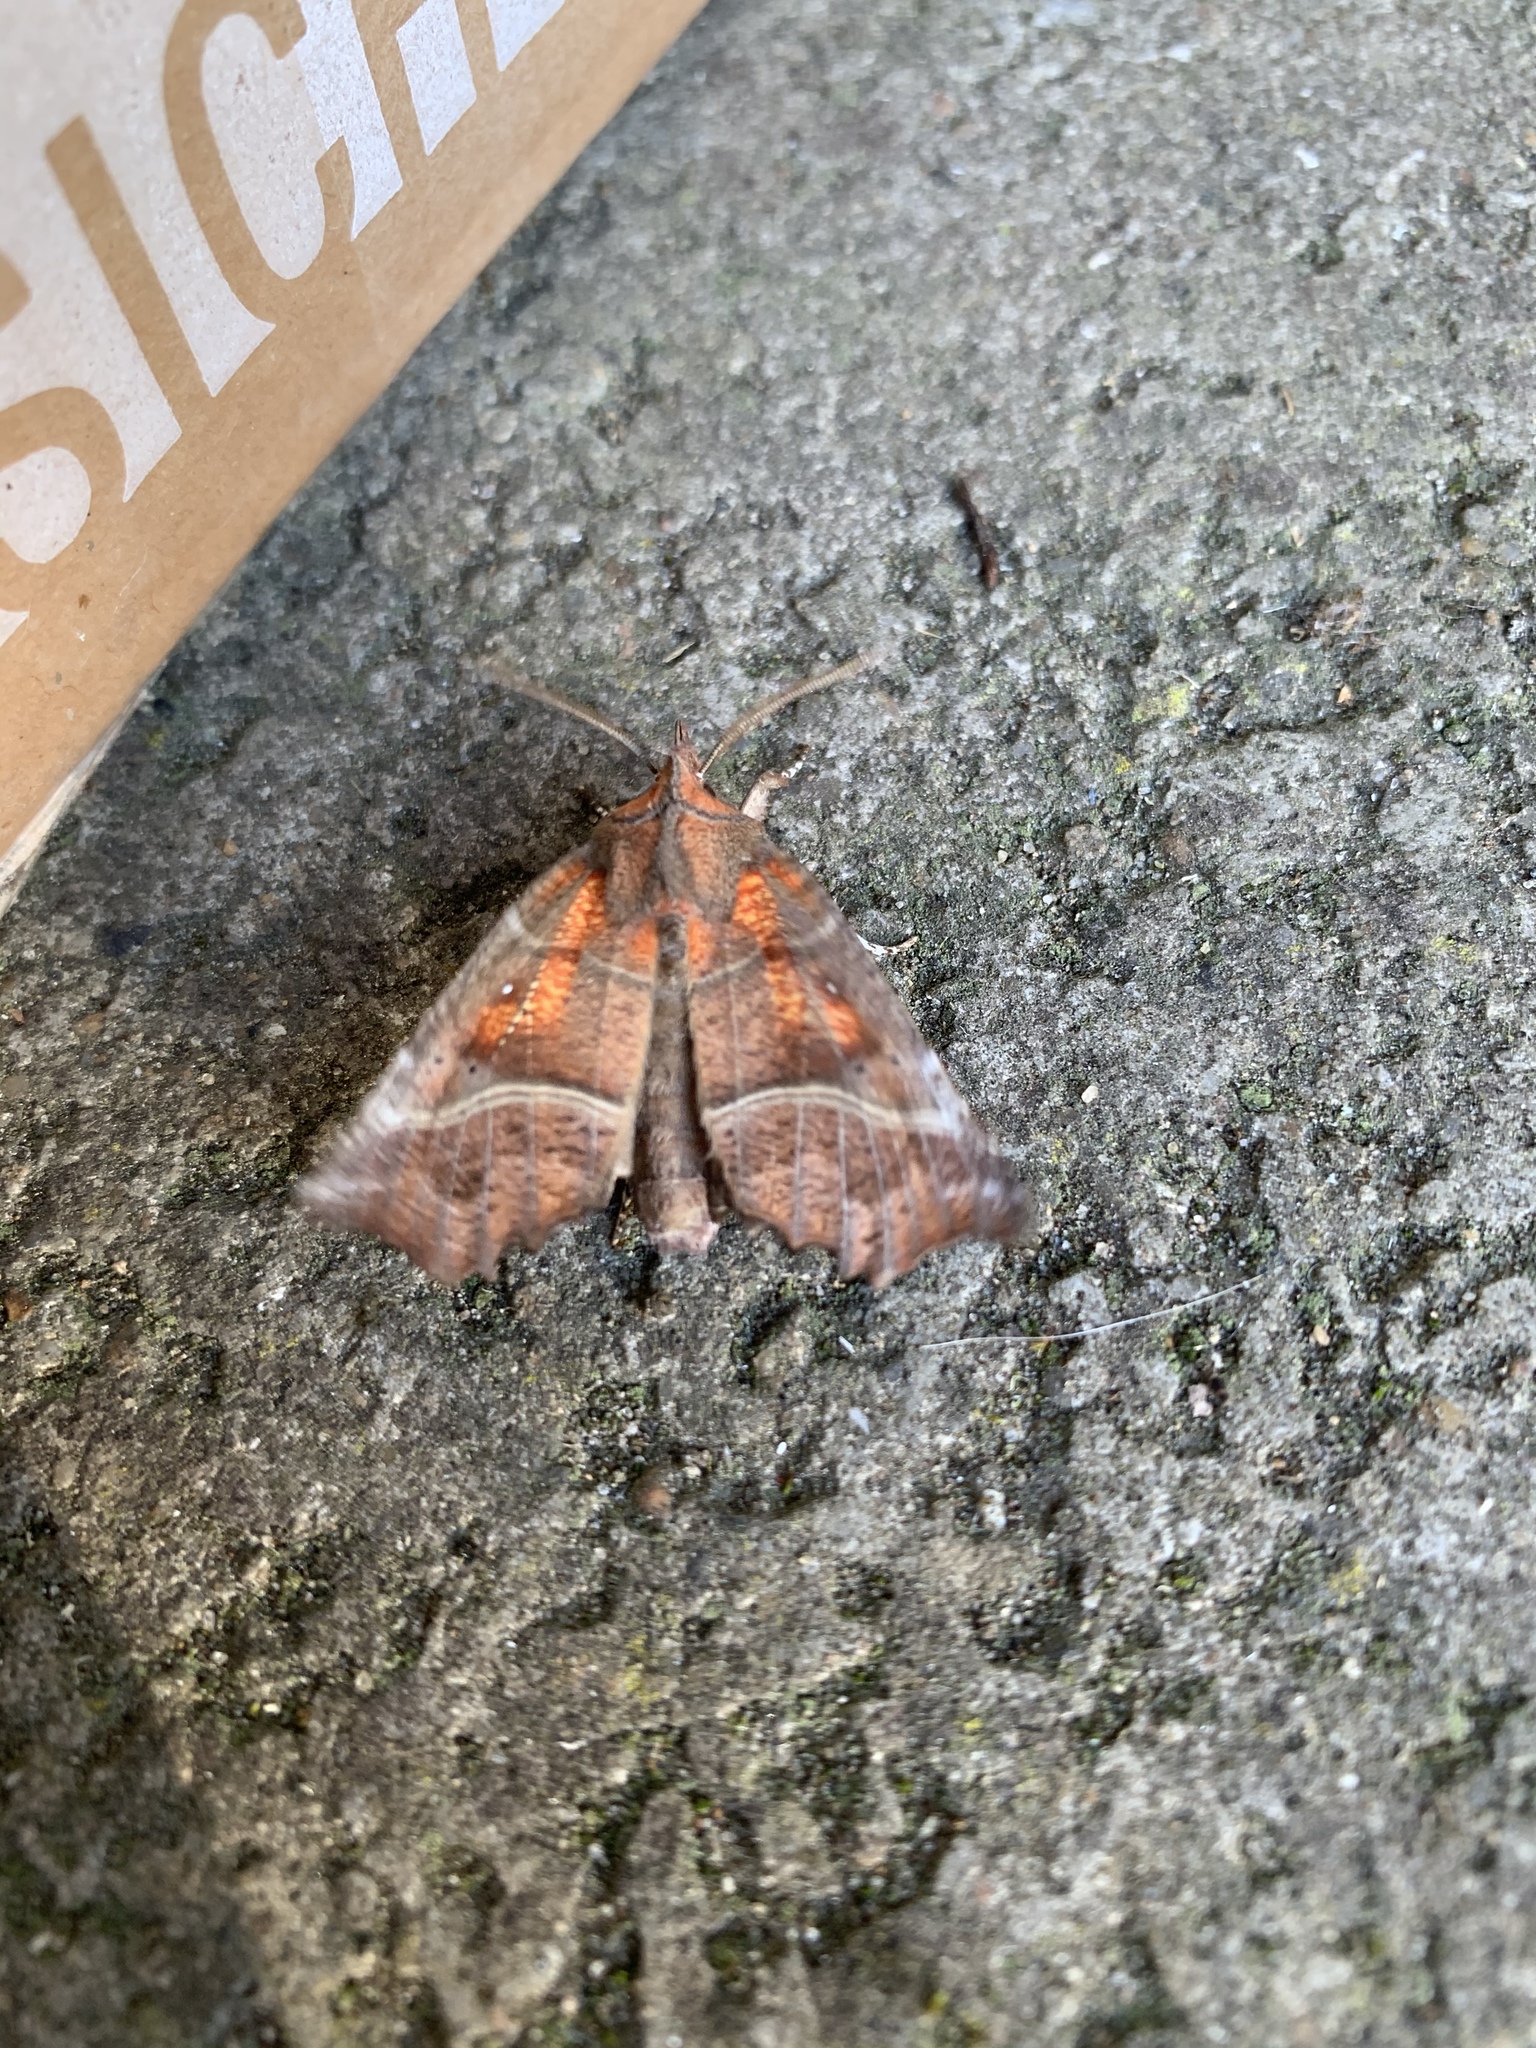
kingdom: Animalia
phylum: Arthropoda
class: Insecta
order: Lepidoptera
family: Erebidae
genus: Scoliopteryx
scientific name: Scoliopteryx libatrix
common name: Herald
